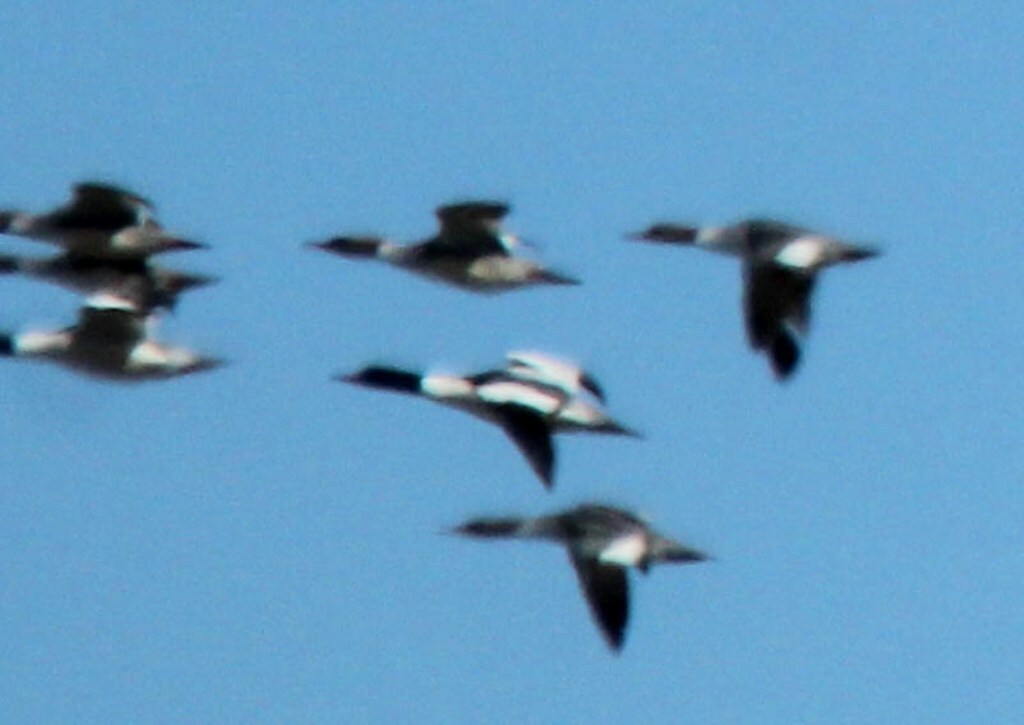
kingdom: Animalia
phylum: Chordata
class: Aves
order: Anseriformes
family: Anatidae
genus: Mergus
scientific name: Mergus merganser
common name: Common merganser
